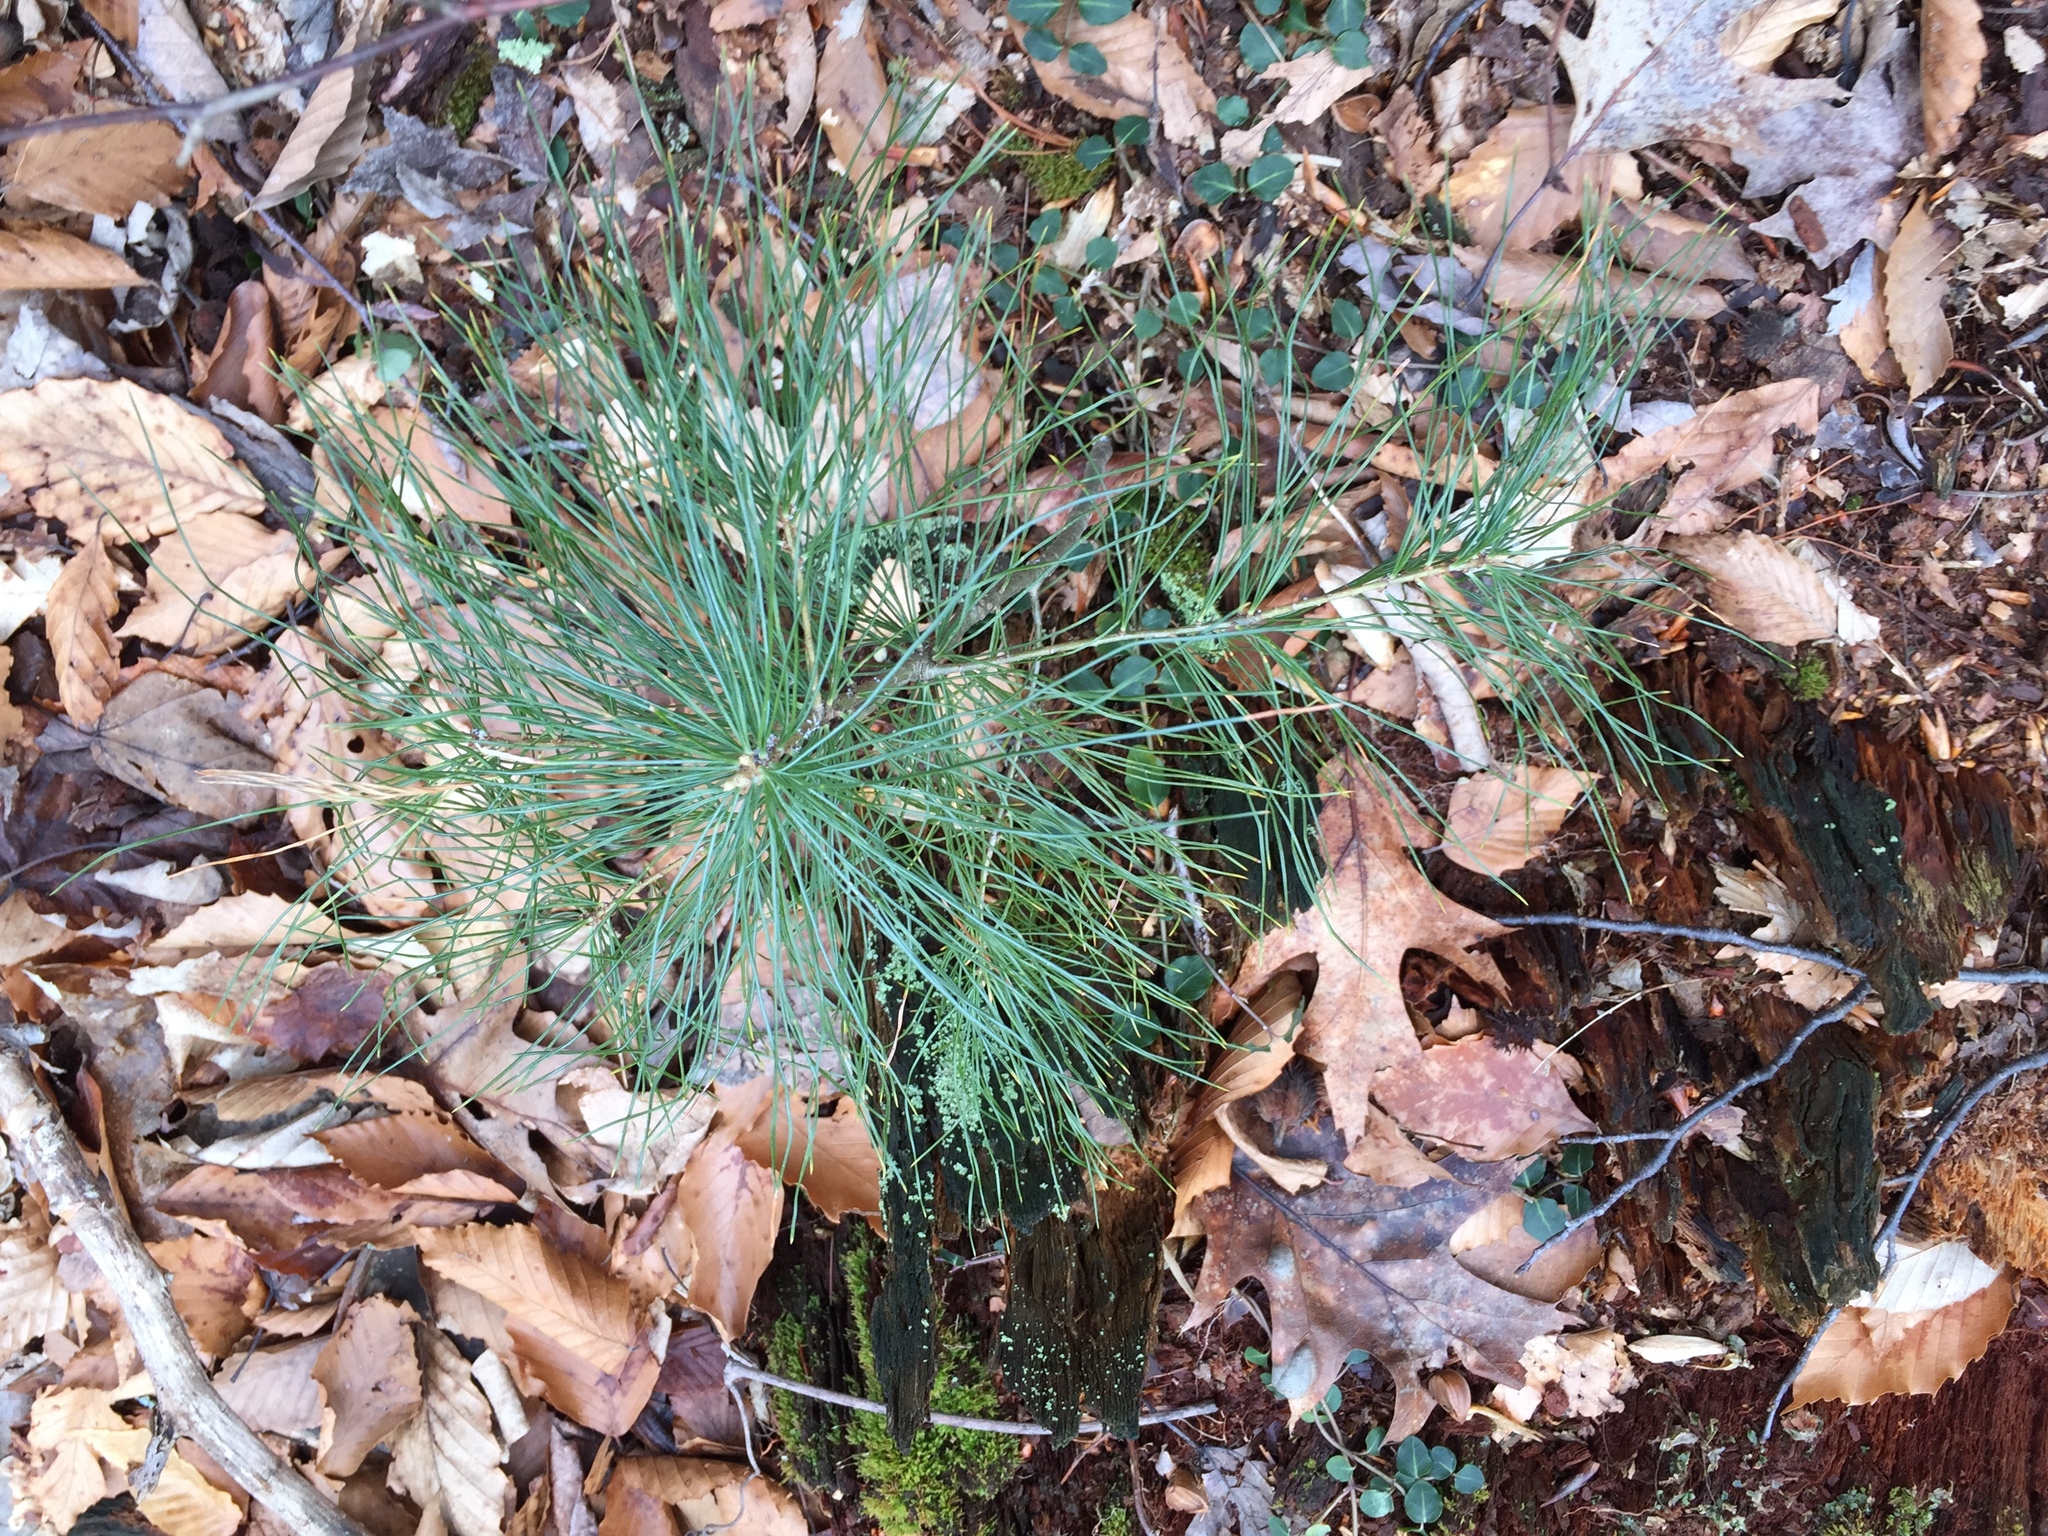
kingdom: Plantae
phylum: Tracheophyta
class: Pinopsida
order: Pinales
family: Pinaceae
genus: Pinus
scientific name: Pinus strobus
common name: Weymouth pine
